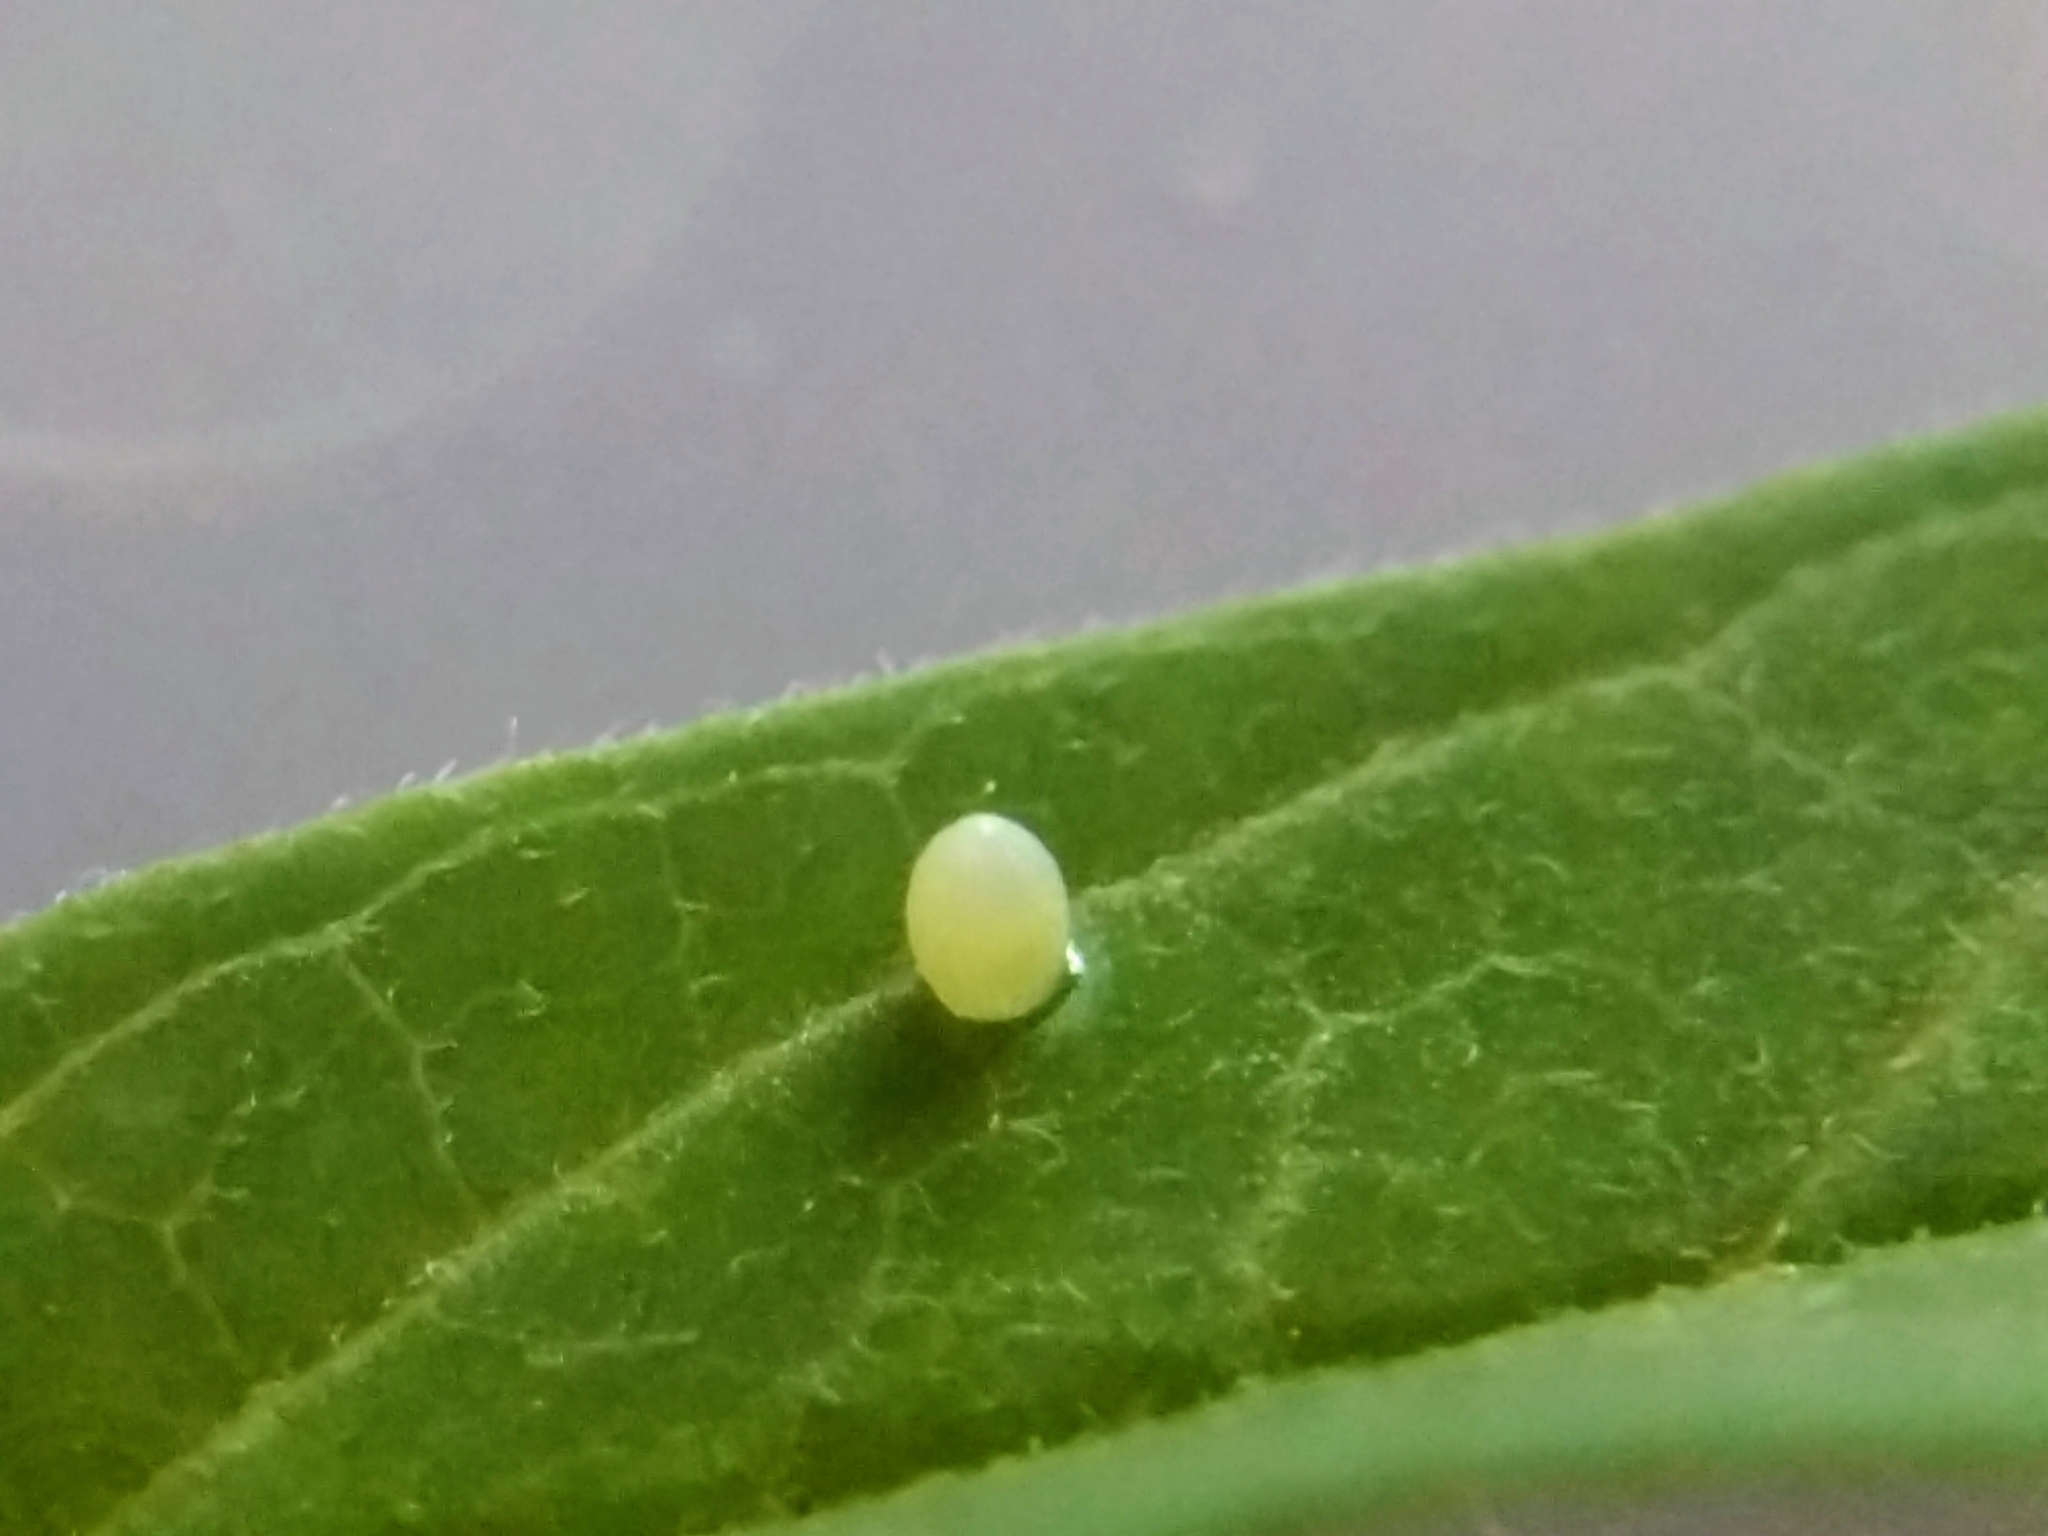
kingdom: Animalia
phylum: Arthropoda
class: Insecta
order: Lepidoptera
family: Nymphalidae
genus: Danaus
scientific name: Danaus plexippus
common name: Monarch
